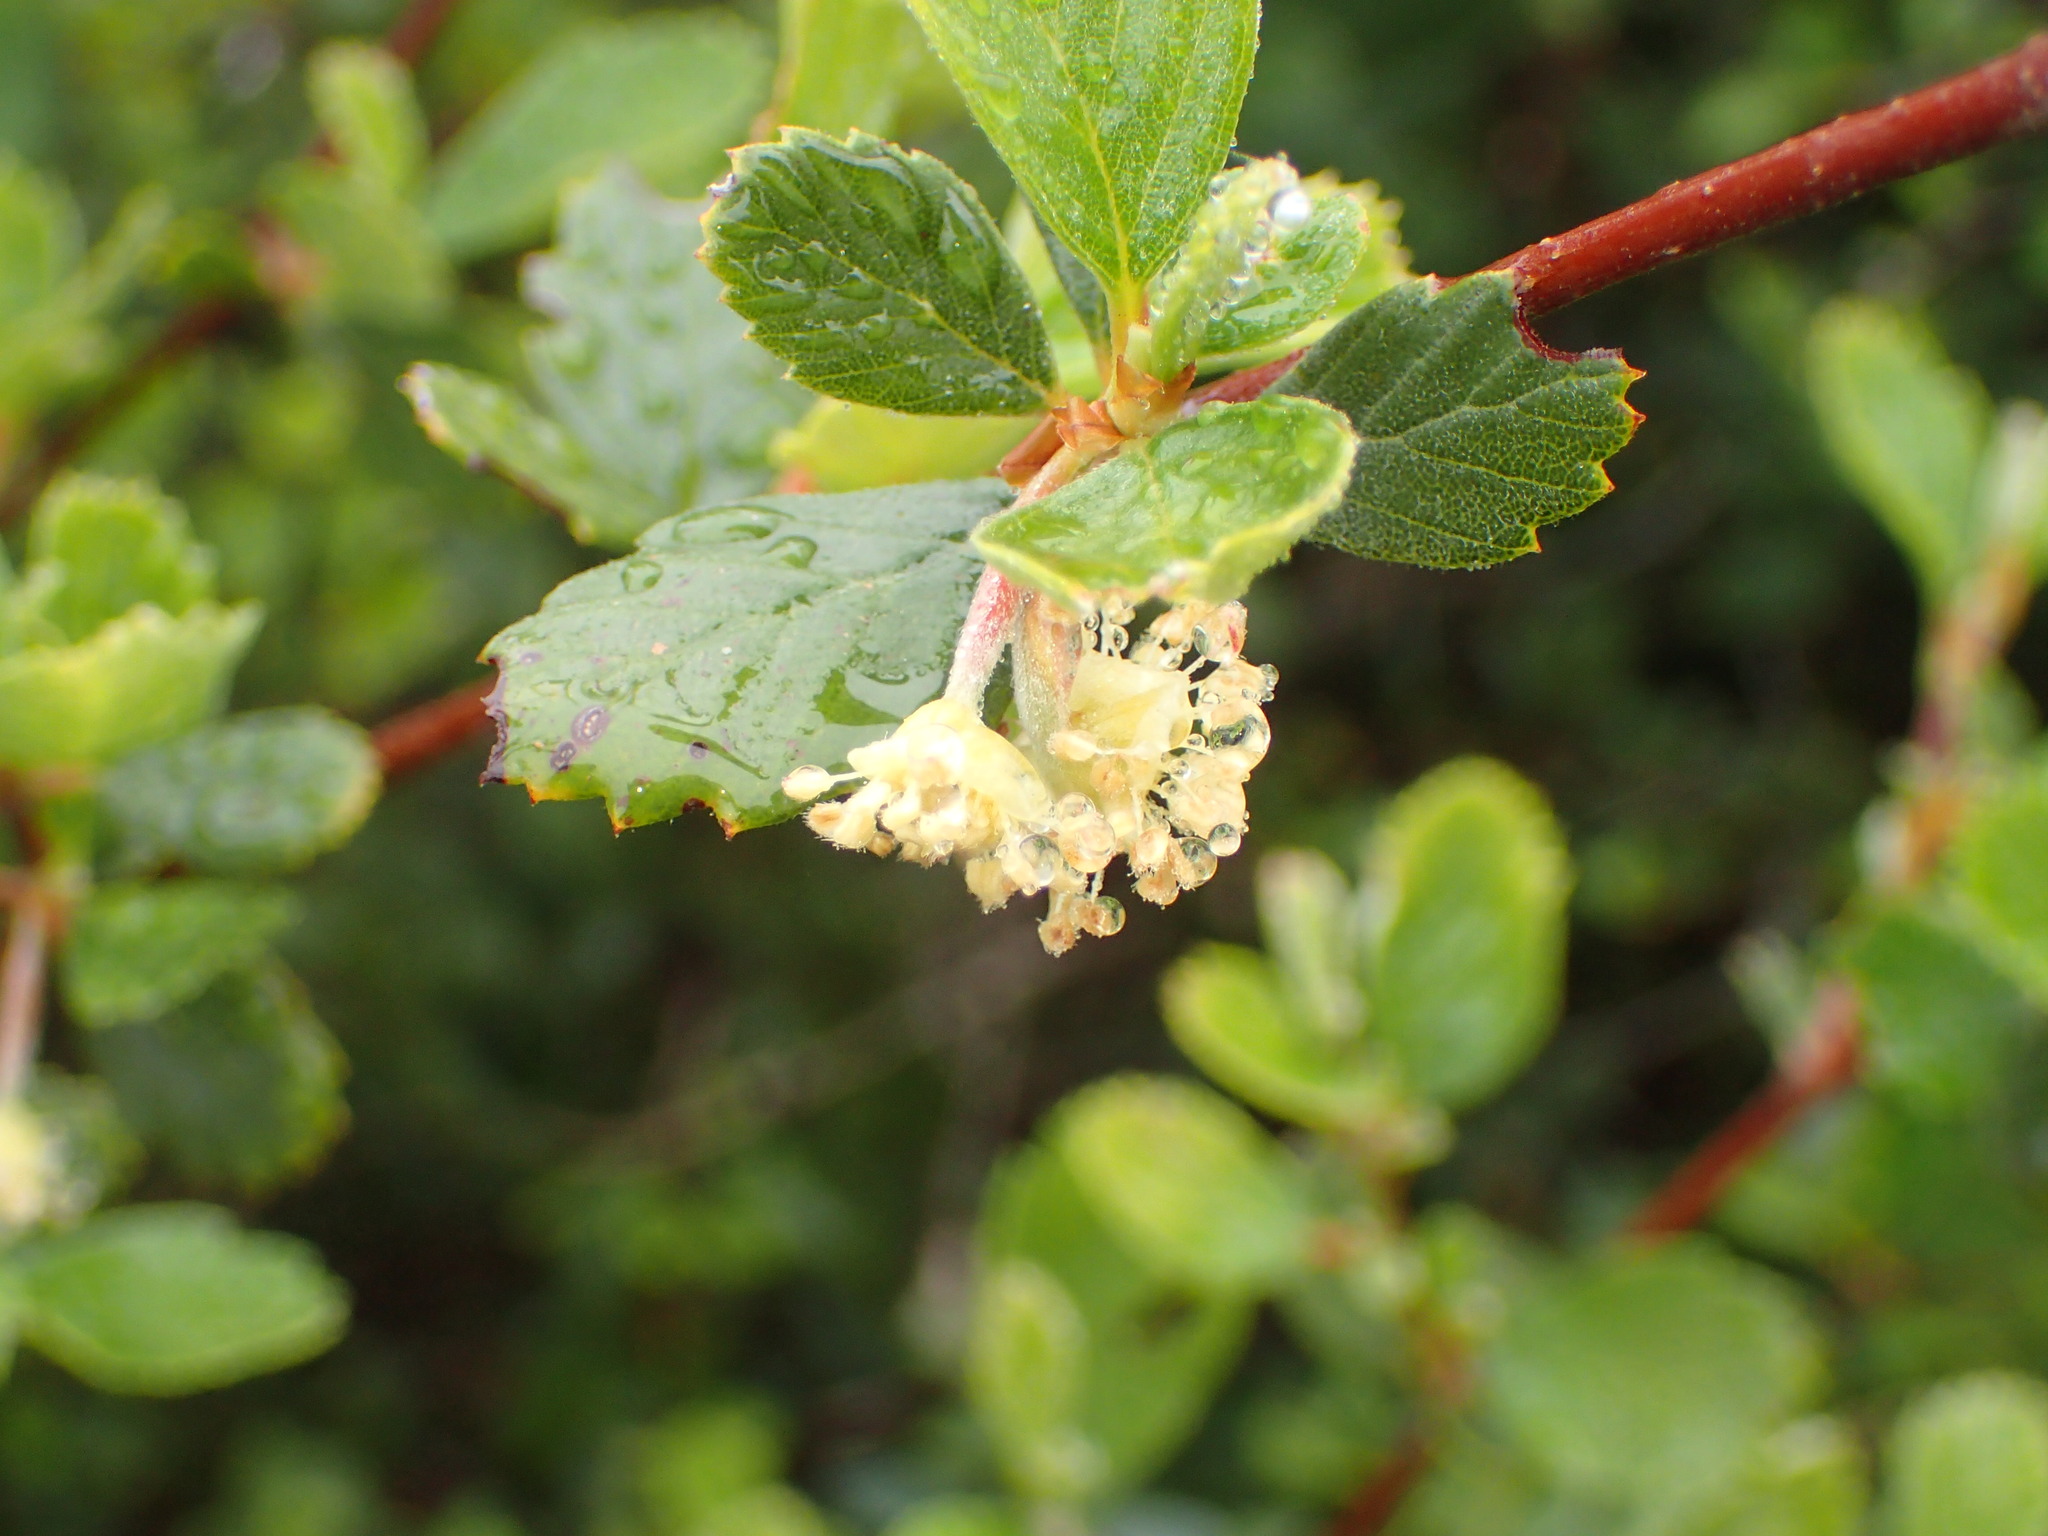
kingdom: Plantae
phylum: Tracheophyta
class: Magnoliopsida
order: Rosales
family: Rosaceae
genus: Cercocarpus
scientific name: Cercocarpus betuloides
